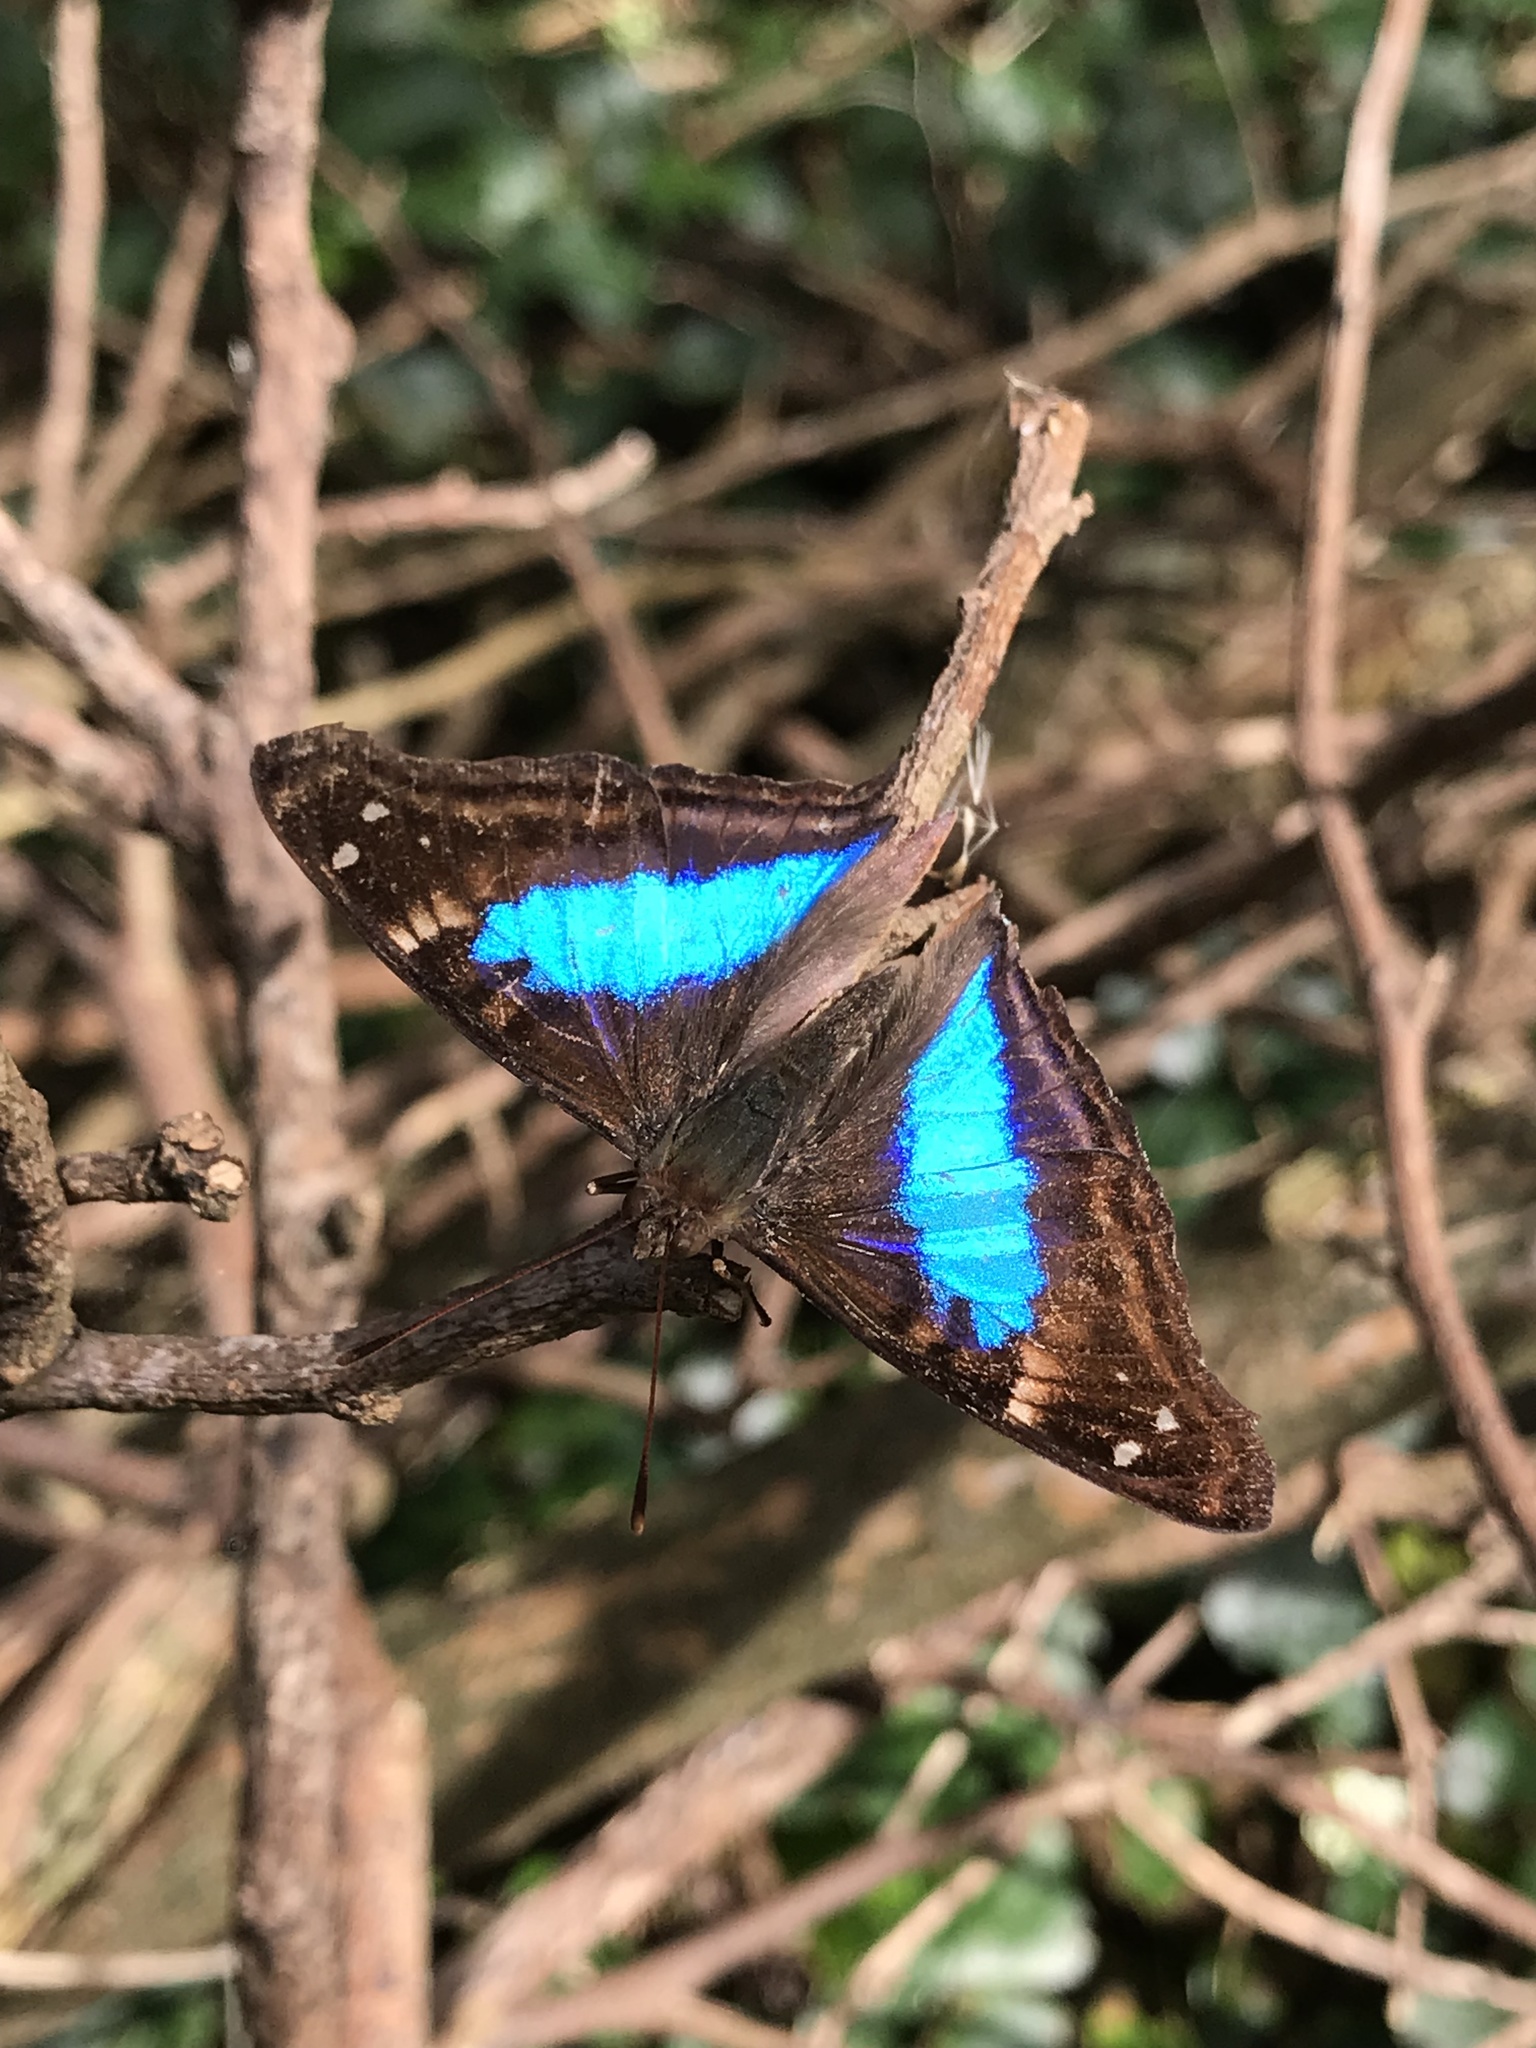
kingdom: Animalia
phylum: Arthropoda
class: Insecta
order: Lepidoptera
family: Nymphalidae
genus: Doxocopa
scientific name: Doxocopa laurentia
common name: Turquoise emperor
